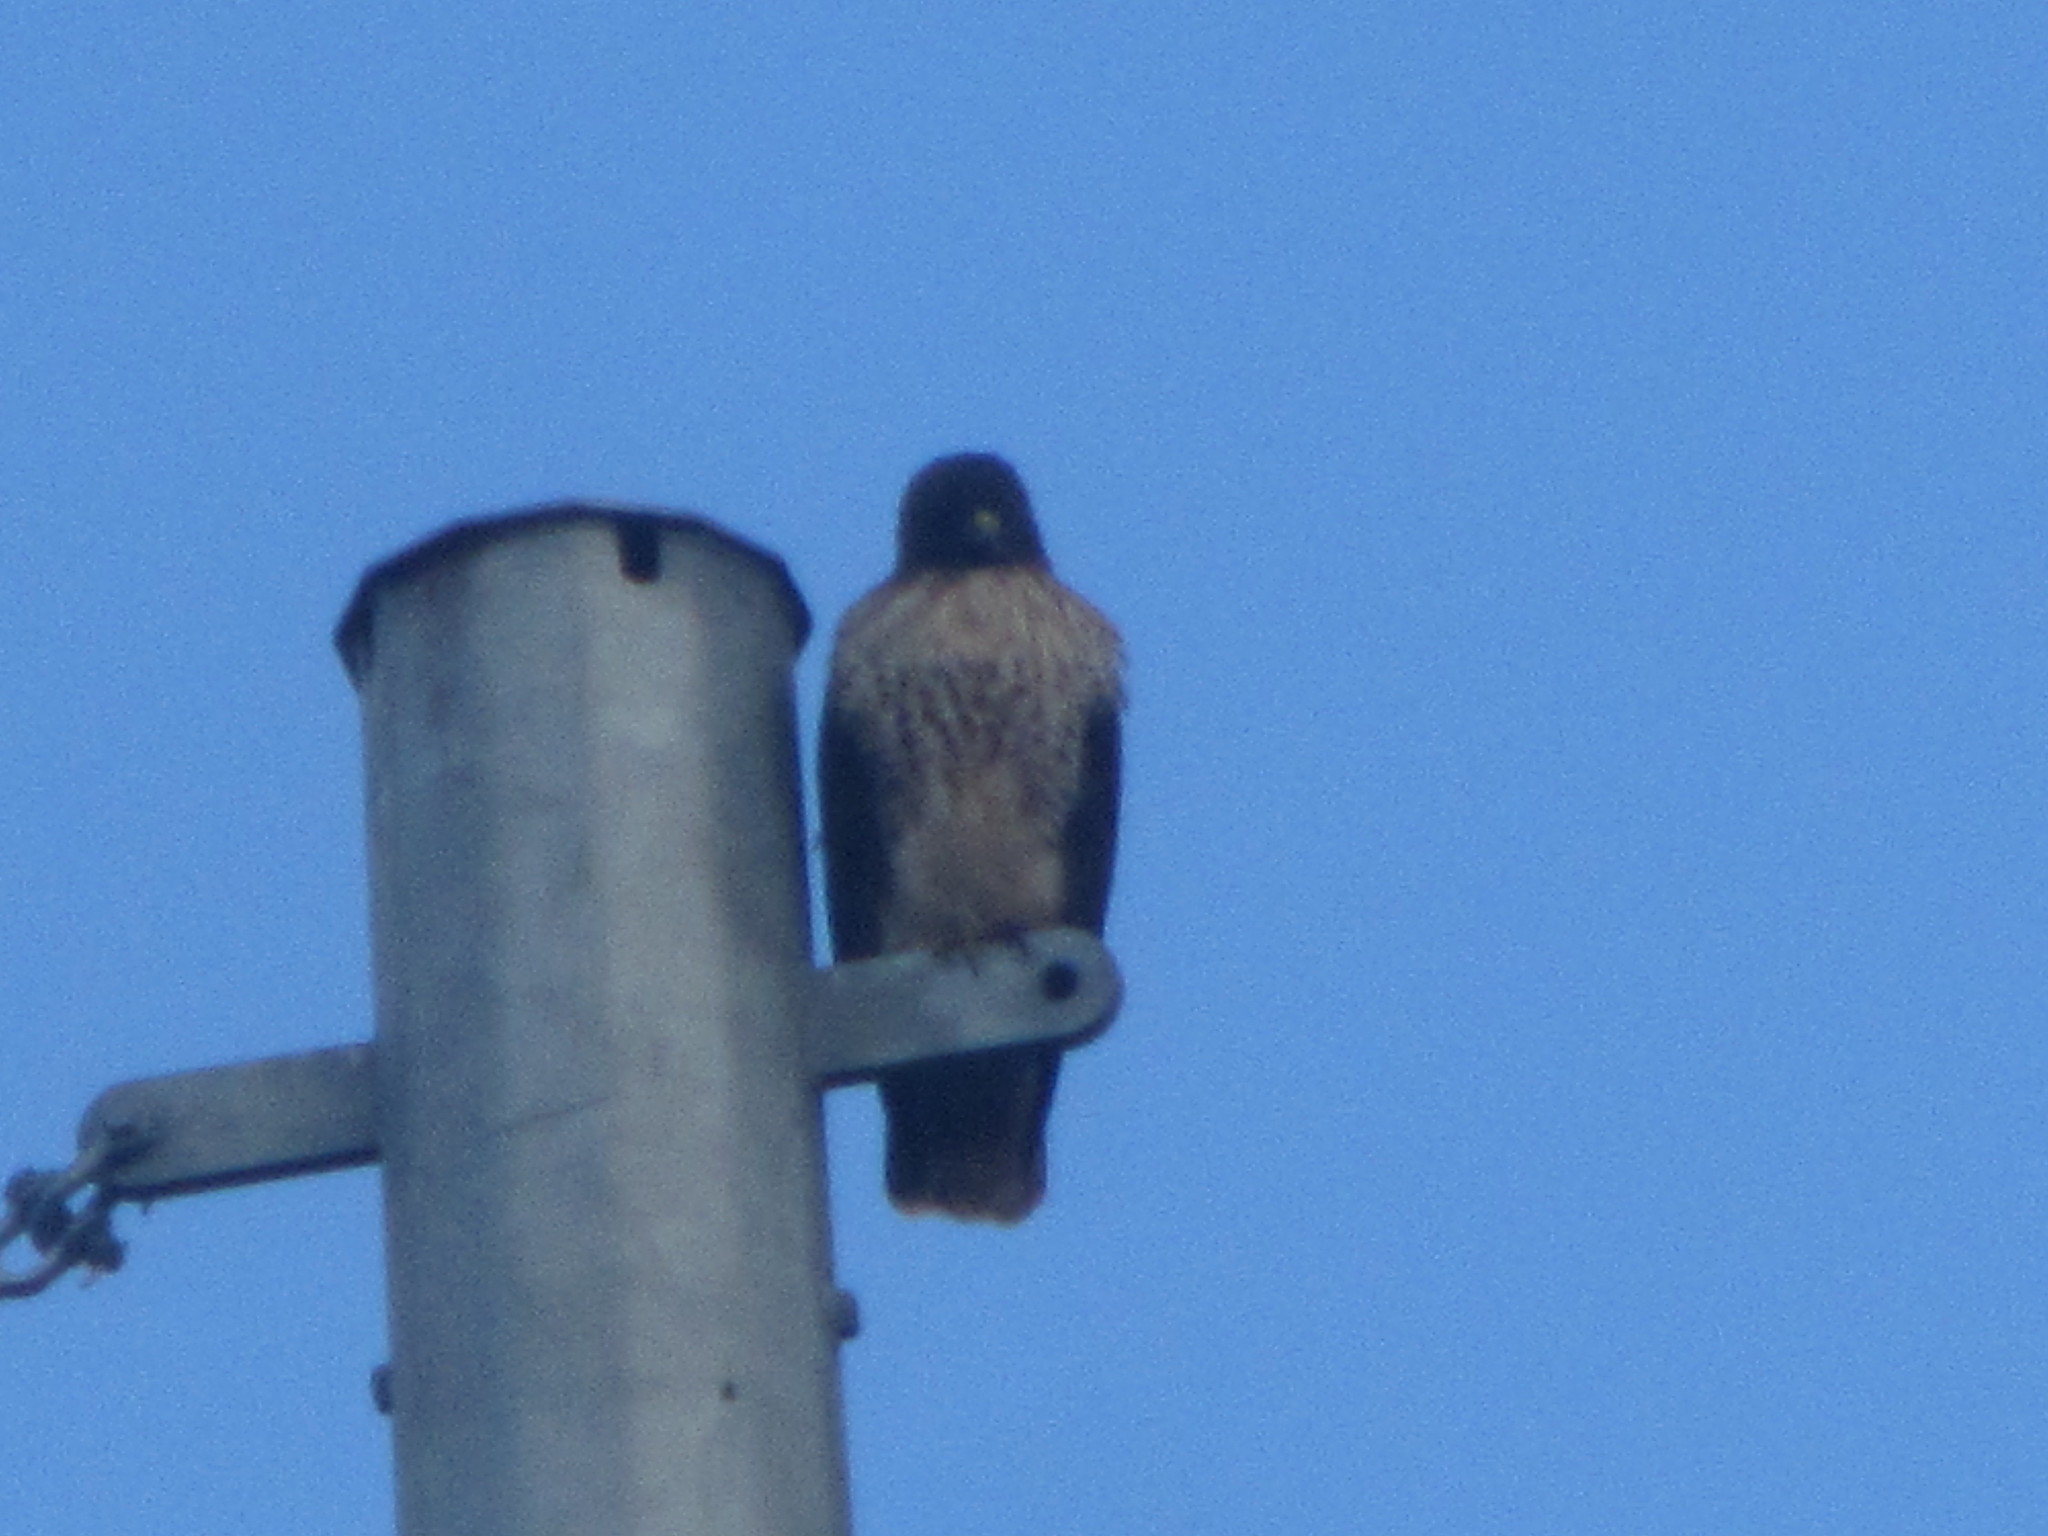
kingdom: Animalia
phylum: Chordata
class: Aves
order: Accipitriformes
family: Accipitridae
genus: Buteo
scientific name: Buteo jamaicensis
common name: Red-tailed hawk
